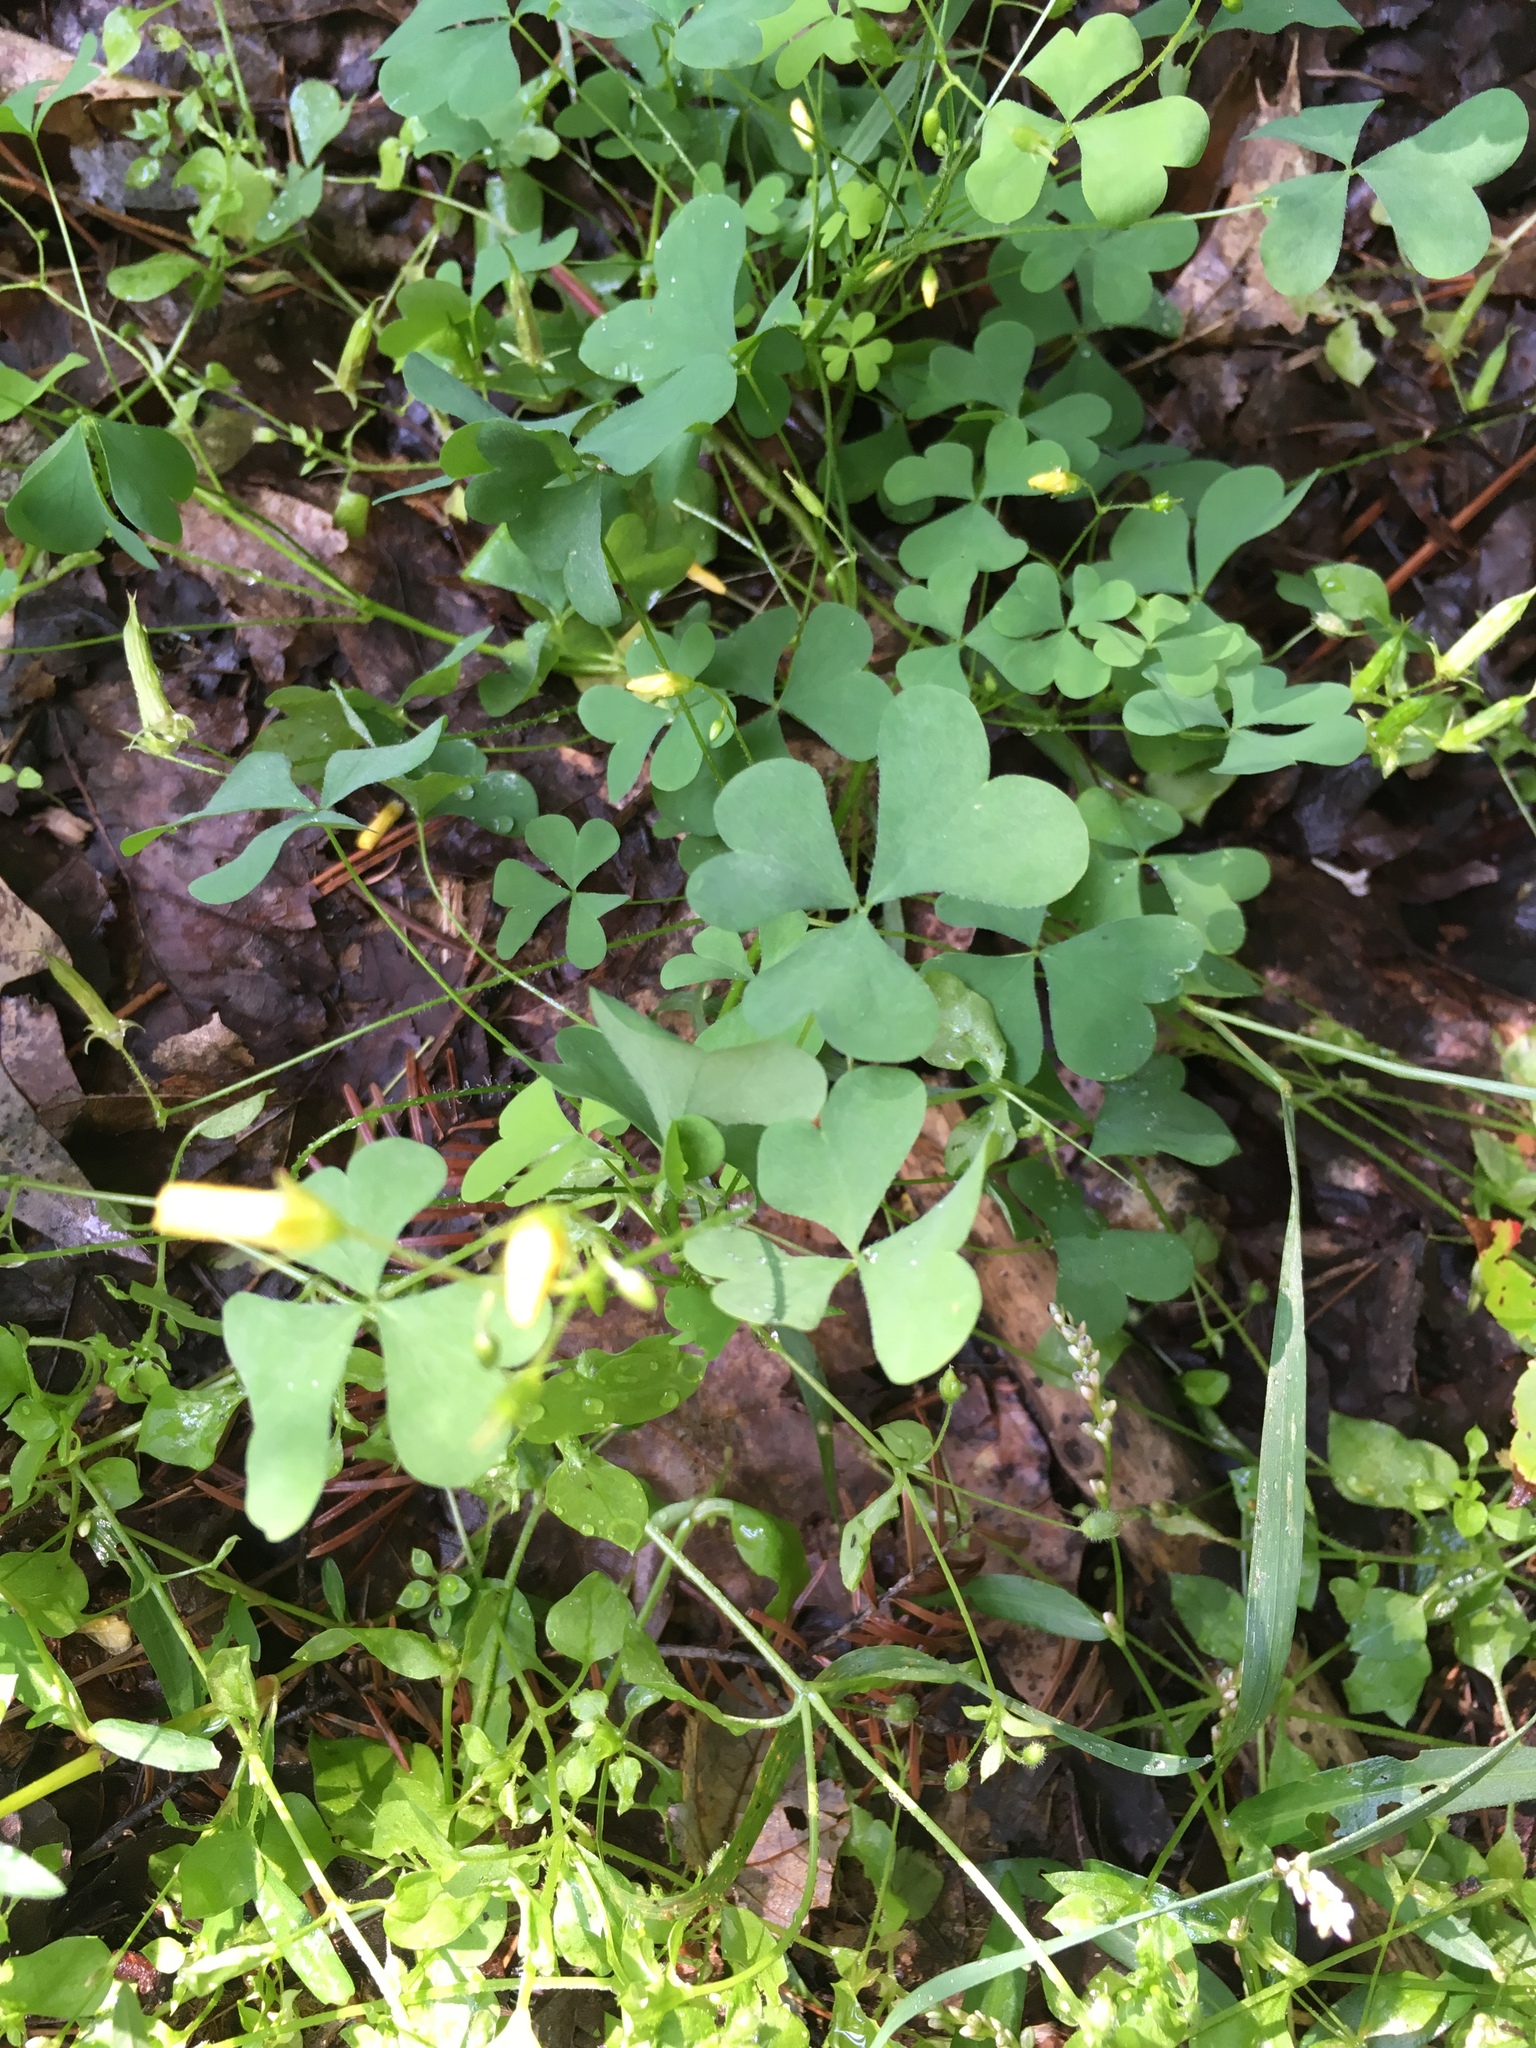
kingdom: Plantae
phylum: Tracheophyta
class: Magnoliopsida
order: Oxalidales
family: Oxalidaceae
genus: Oxalis
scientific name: Oxalis stricta
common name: Upright yellow-sorrel
